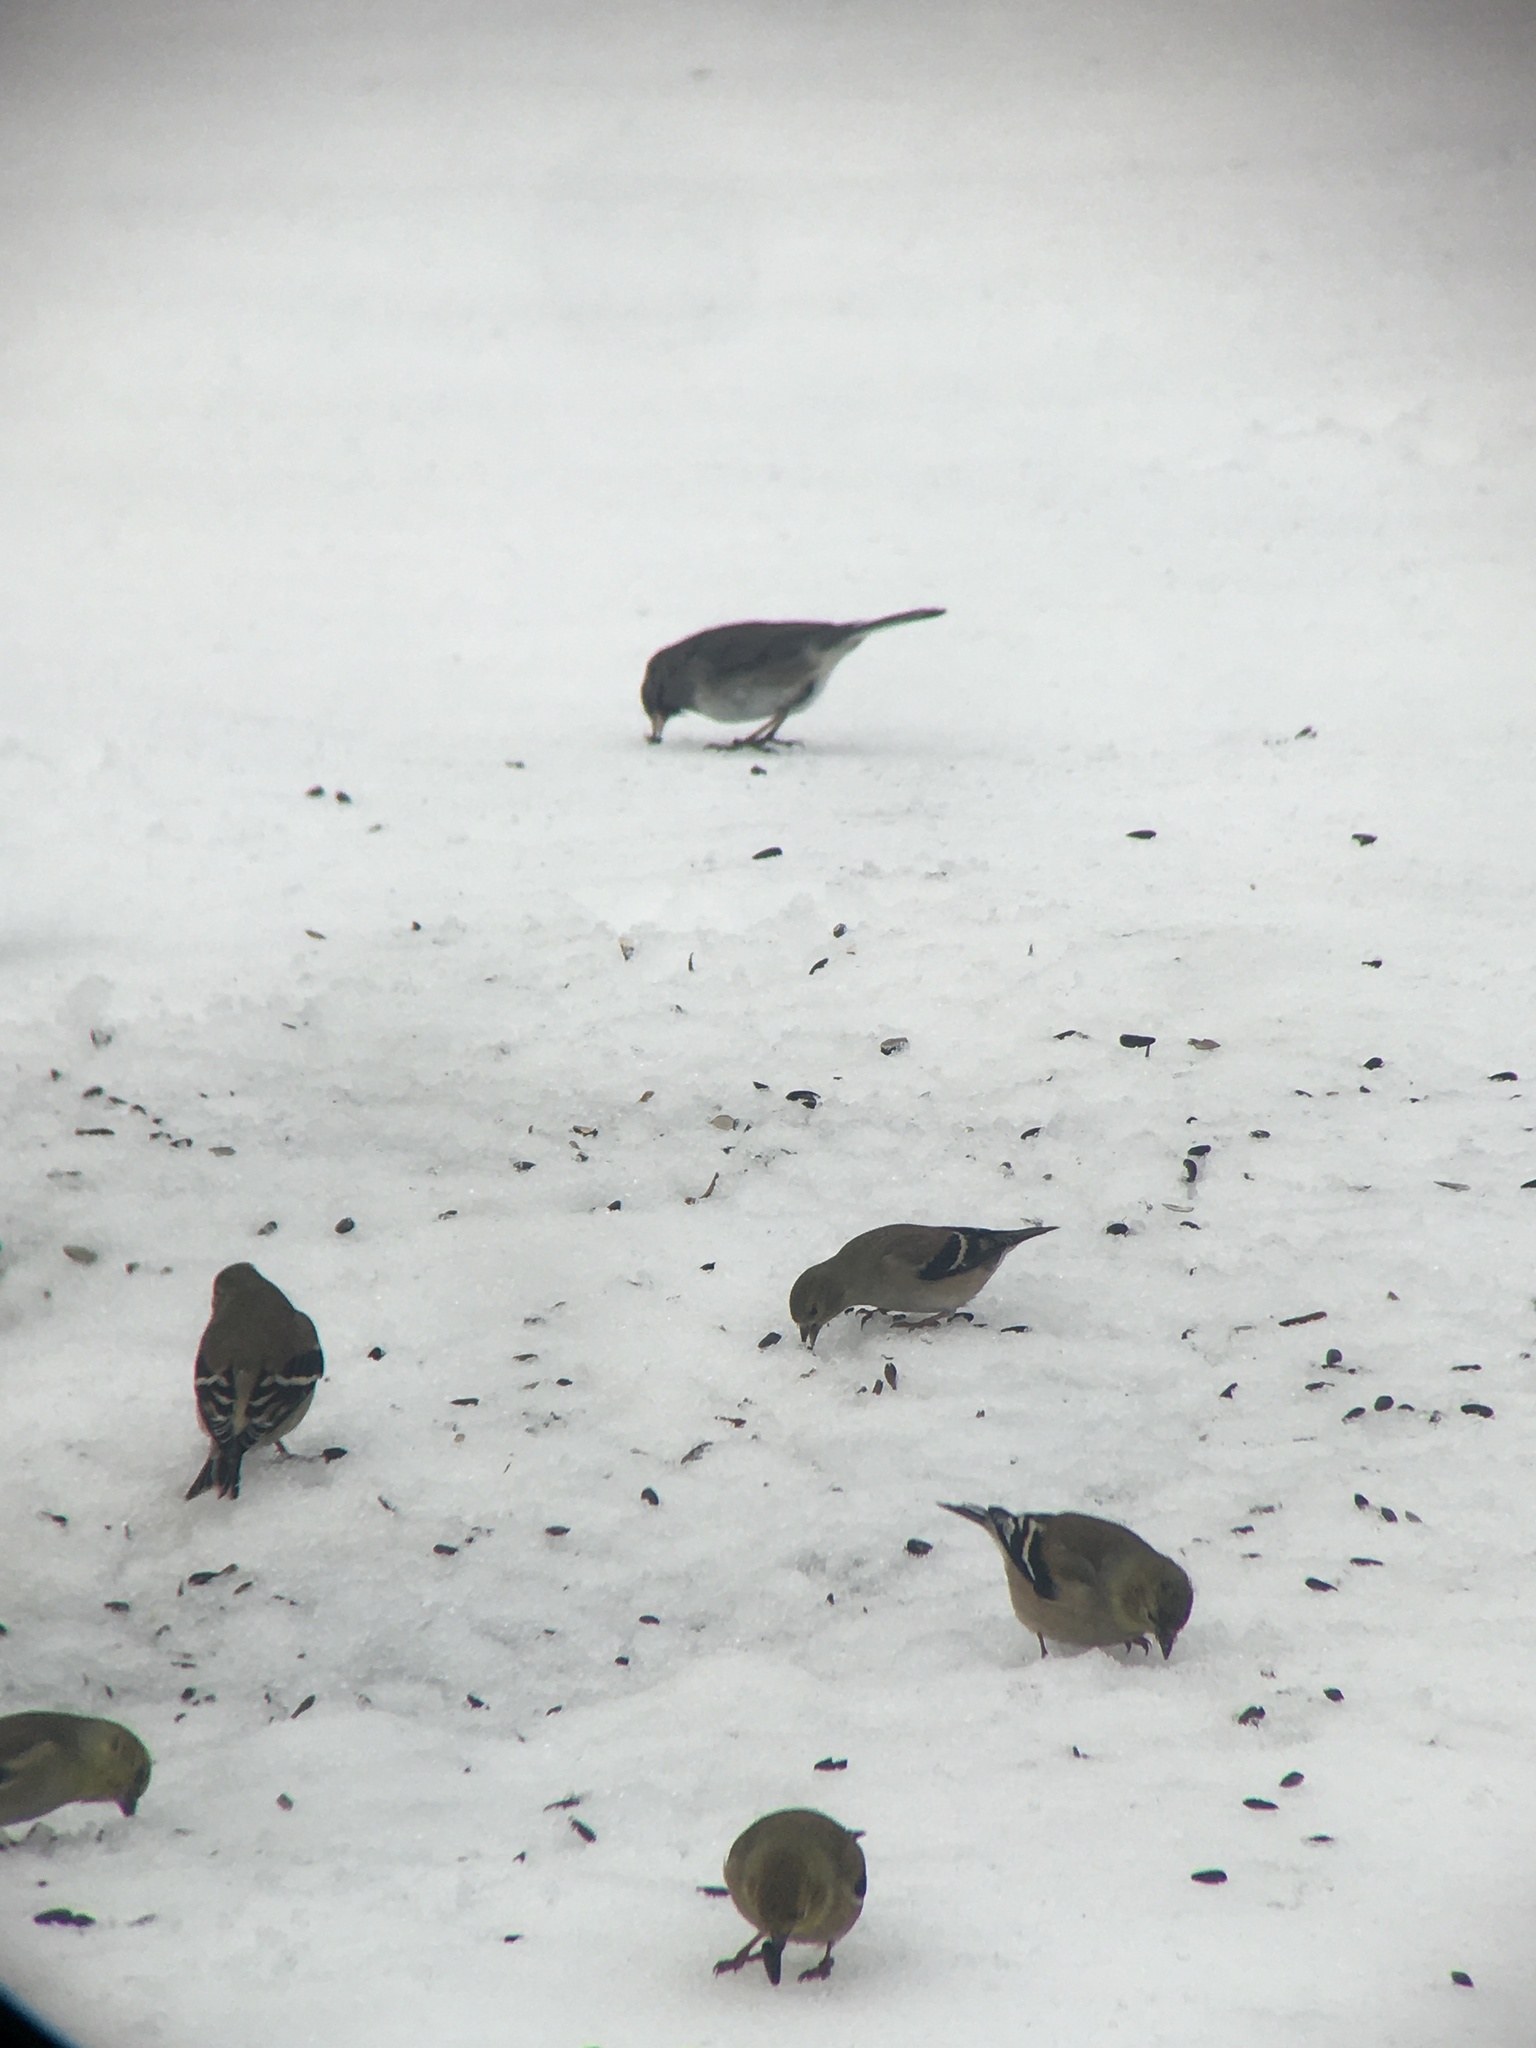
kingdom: Animalia
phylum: Chordata
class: Aves
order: Passeriformes
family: Fringillidae
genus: Spinus
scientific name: Spinus tristis
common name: American goldfinch
